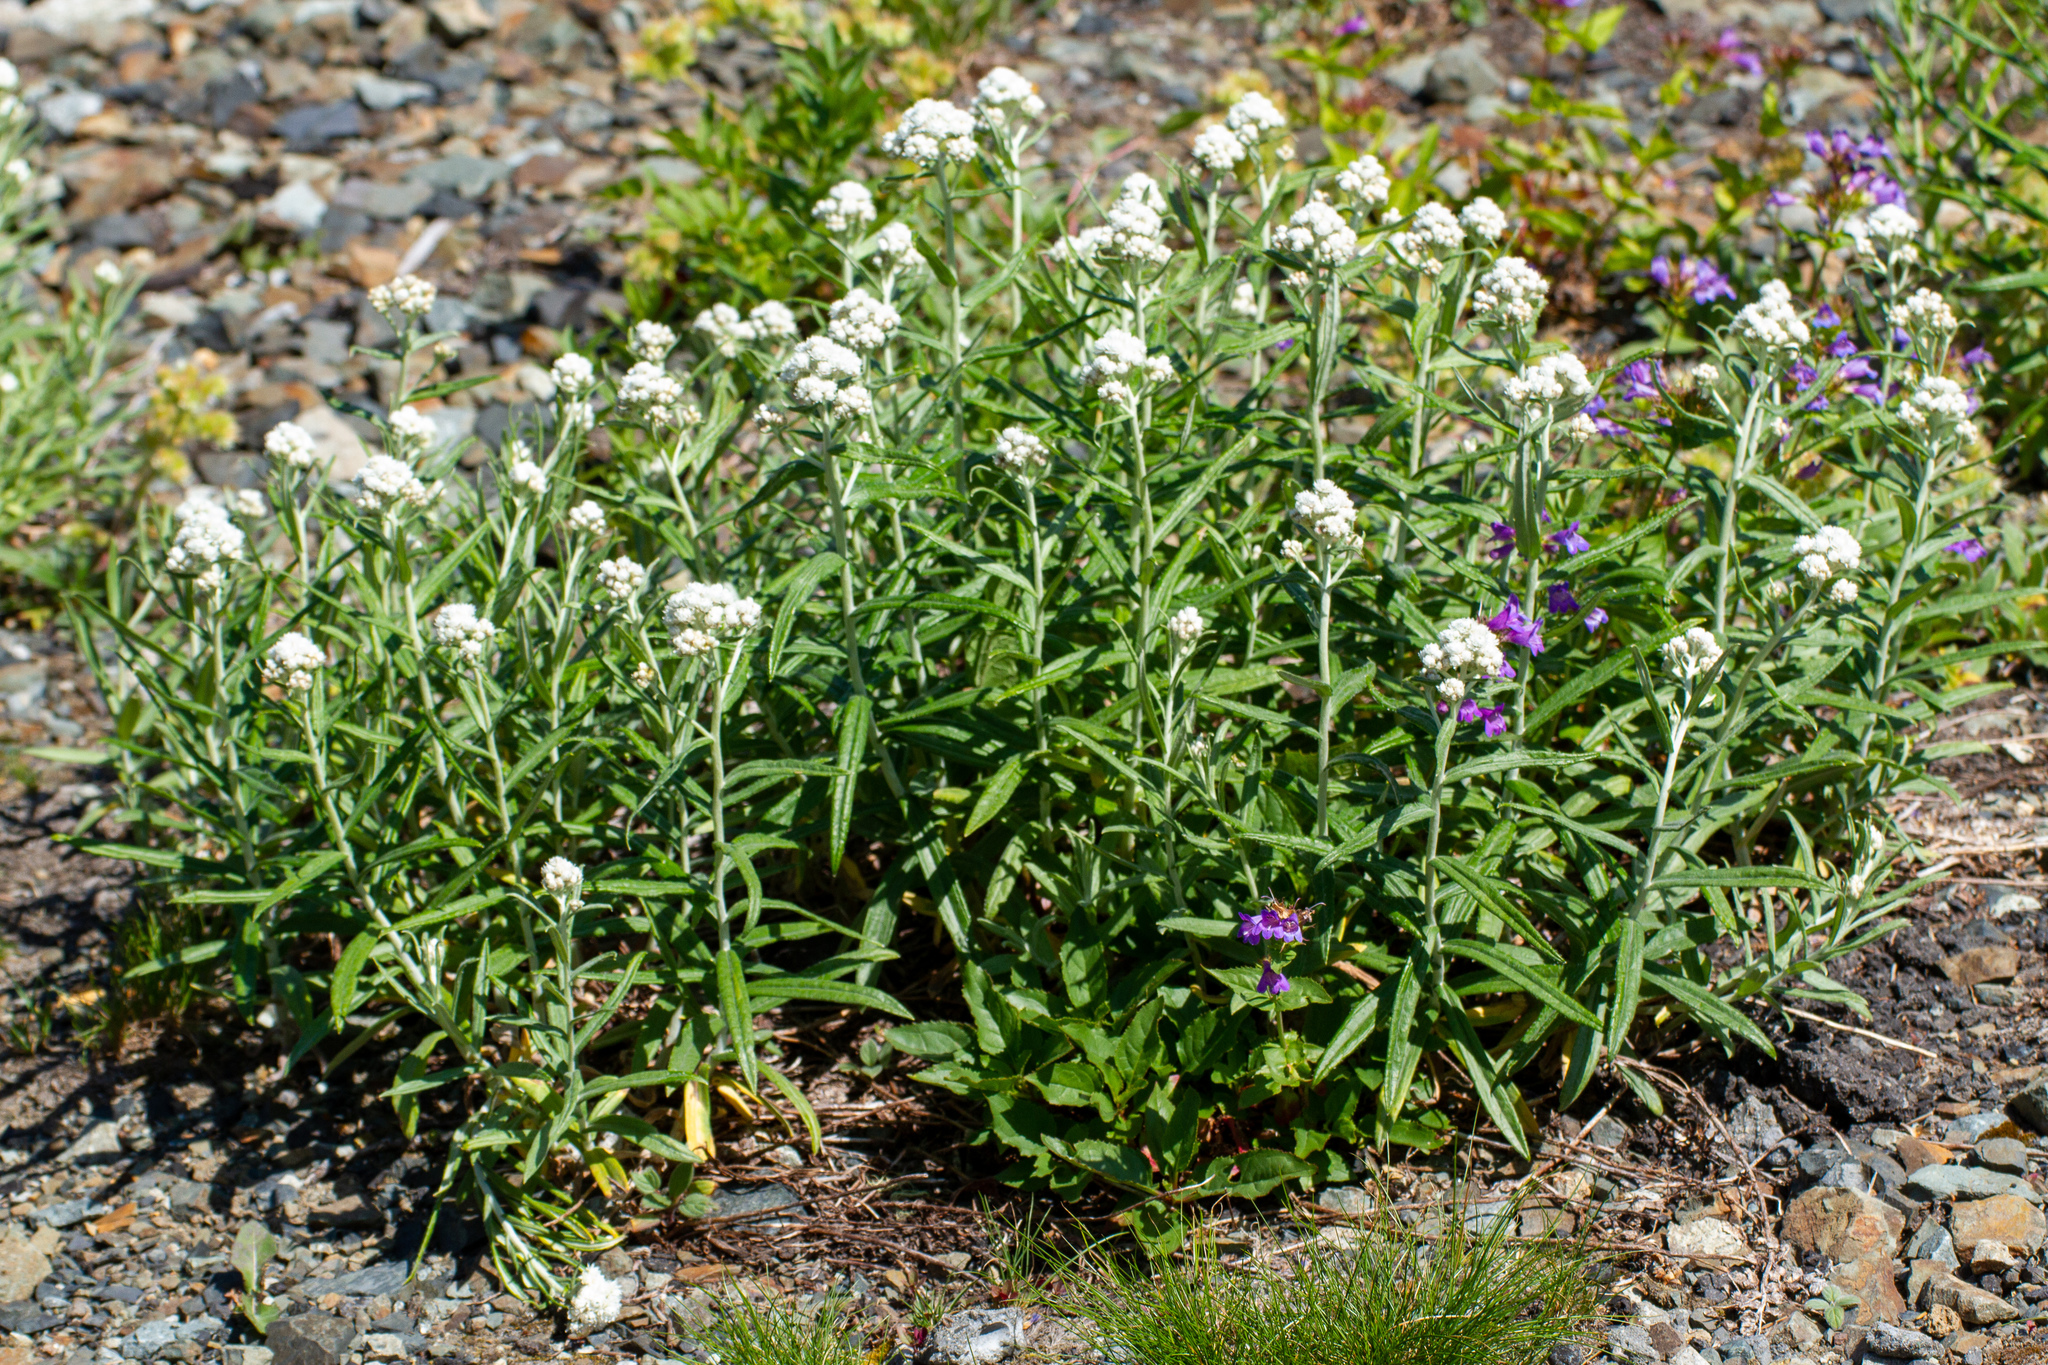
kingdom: Plantae
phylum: Tracheophyta
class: Magnoliopsida
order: Asterales
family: Asteraceae
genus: Anaphalis
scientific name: Anaphalis margaritacea
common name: Pearly everlasting
